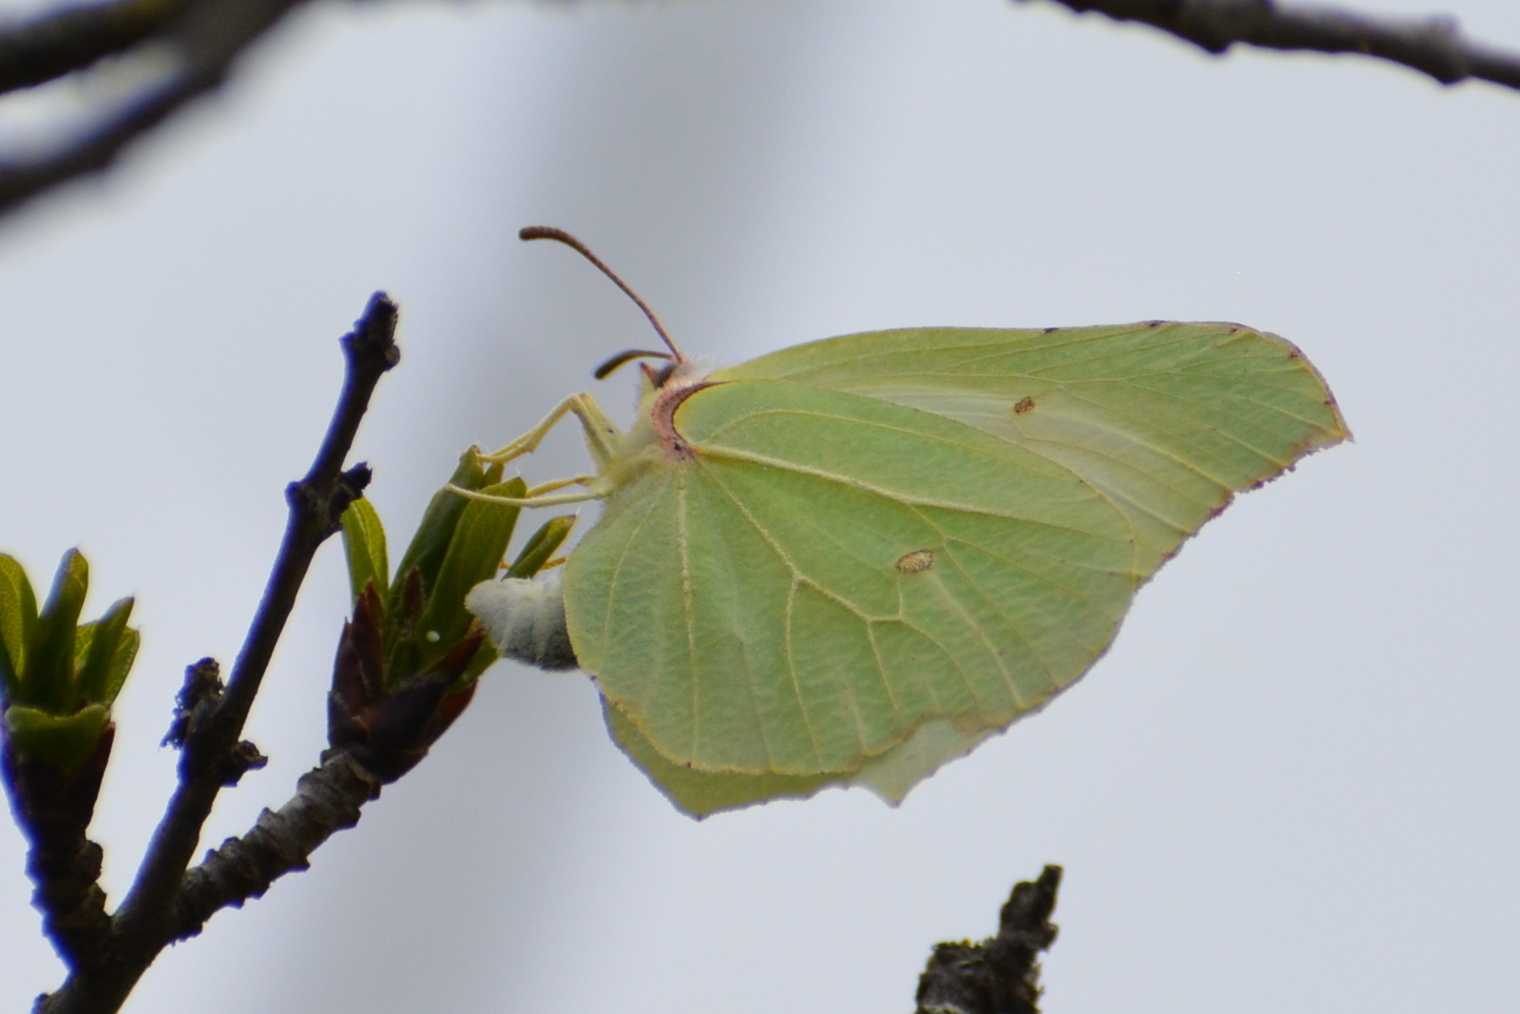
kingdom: Animalia
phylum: Arthropoda
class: Insecta
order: Lepidoptera
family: Pieridae
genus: Gonepteryx
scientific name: Gonepteryx rhamni
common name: Brimstone
